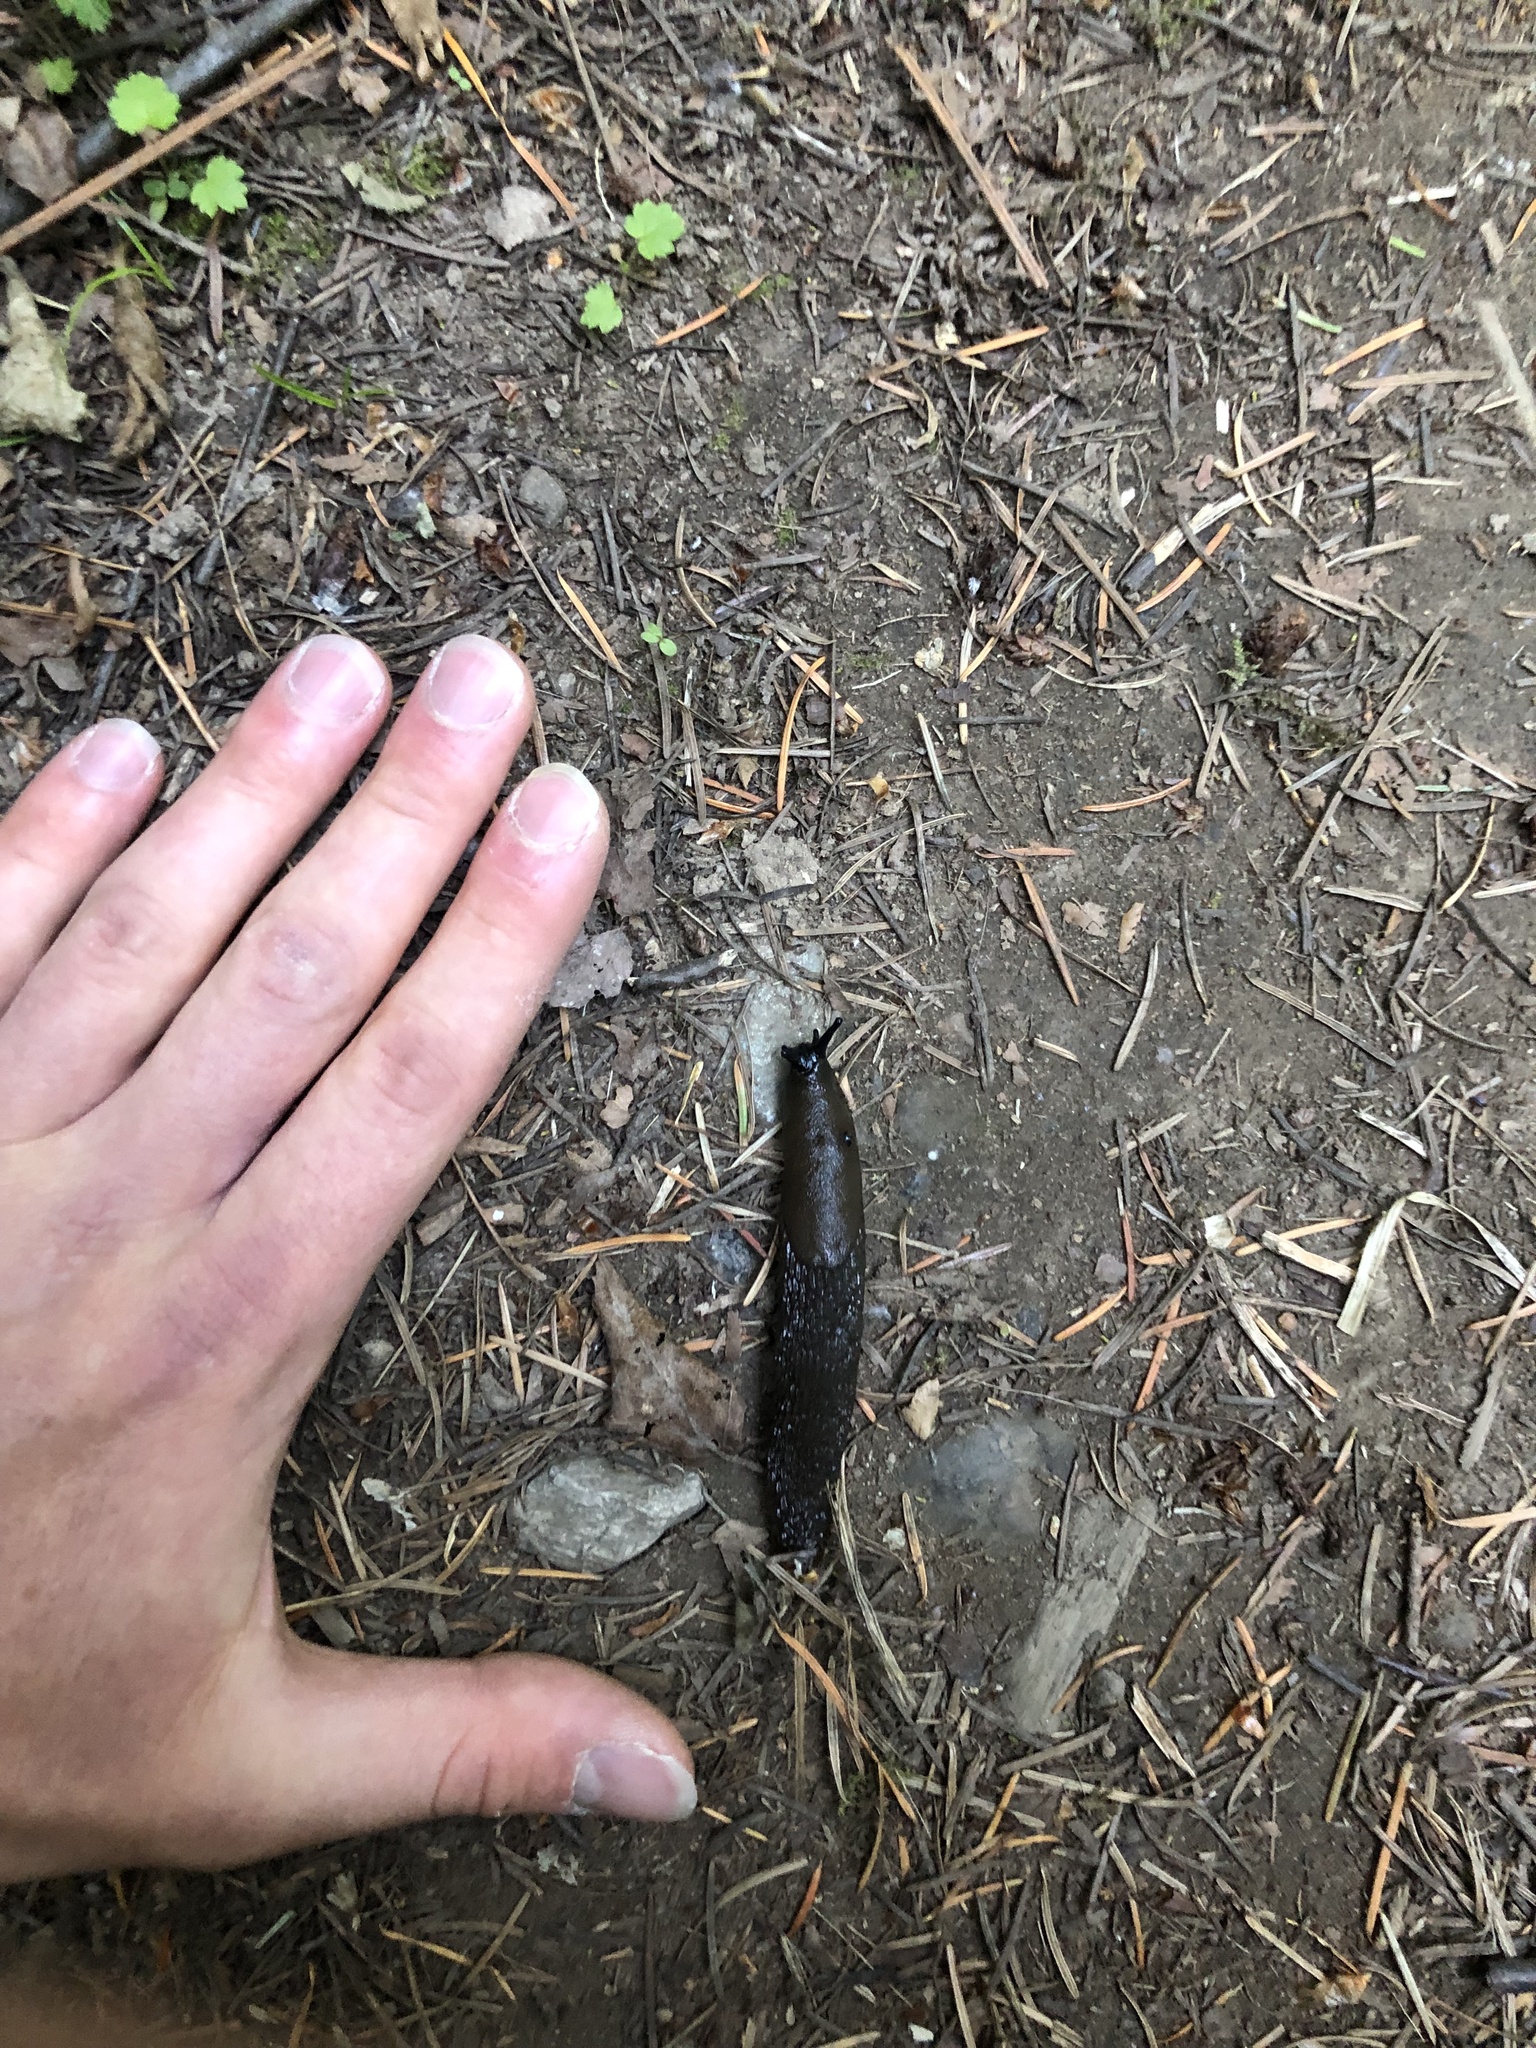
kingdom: Animalia
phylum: Mollusca
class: Gastropoda
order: Stylommatophora
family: Arionidae
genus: Arion
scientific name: Arion
